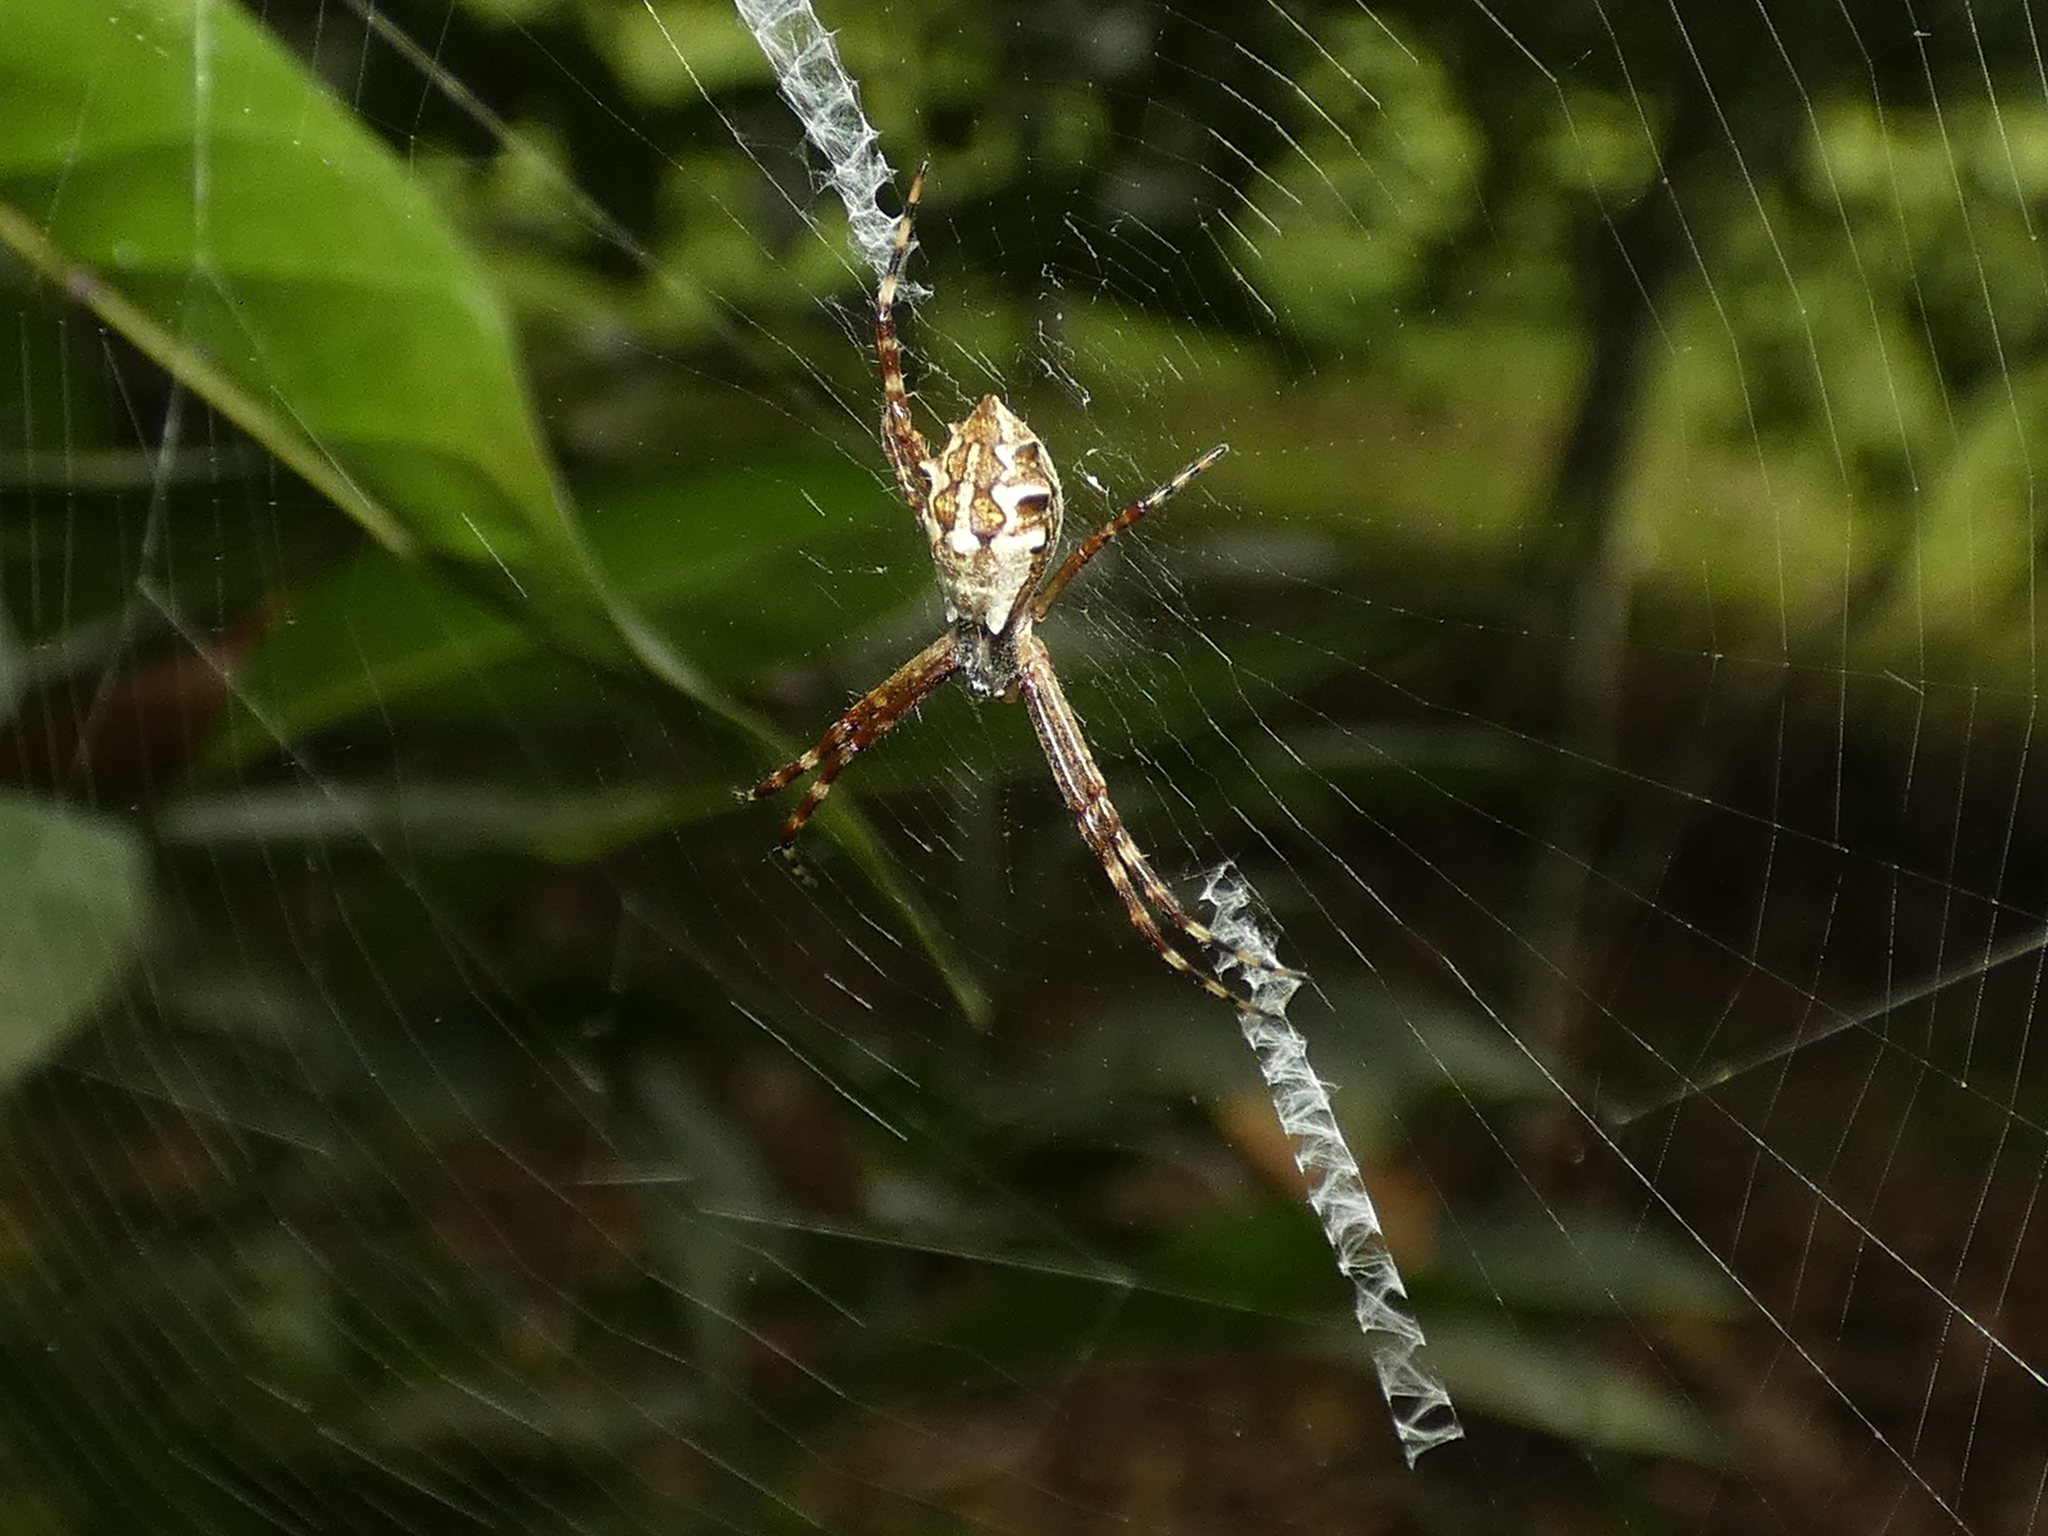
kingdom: Animalia
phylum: Arthropoda
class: Arachnida
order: Araneae
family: Araneidae
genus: Argiope
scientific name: Argiope argentata
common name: Orb weavers
